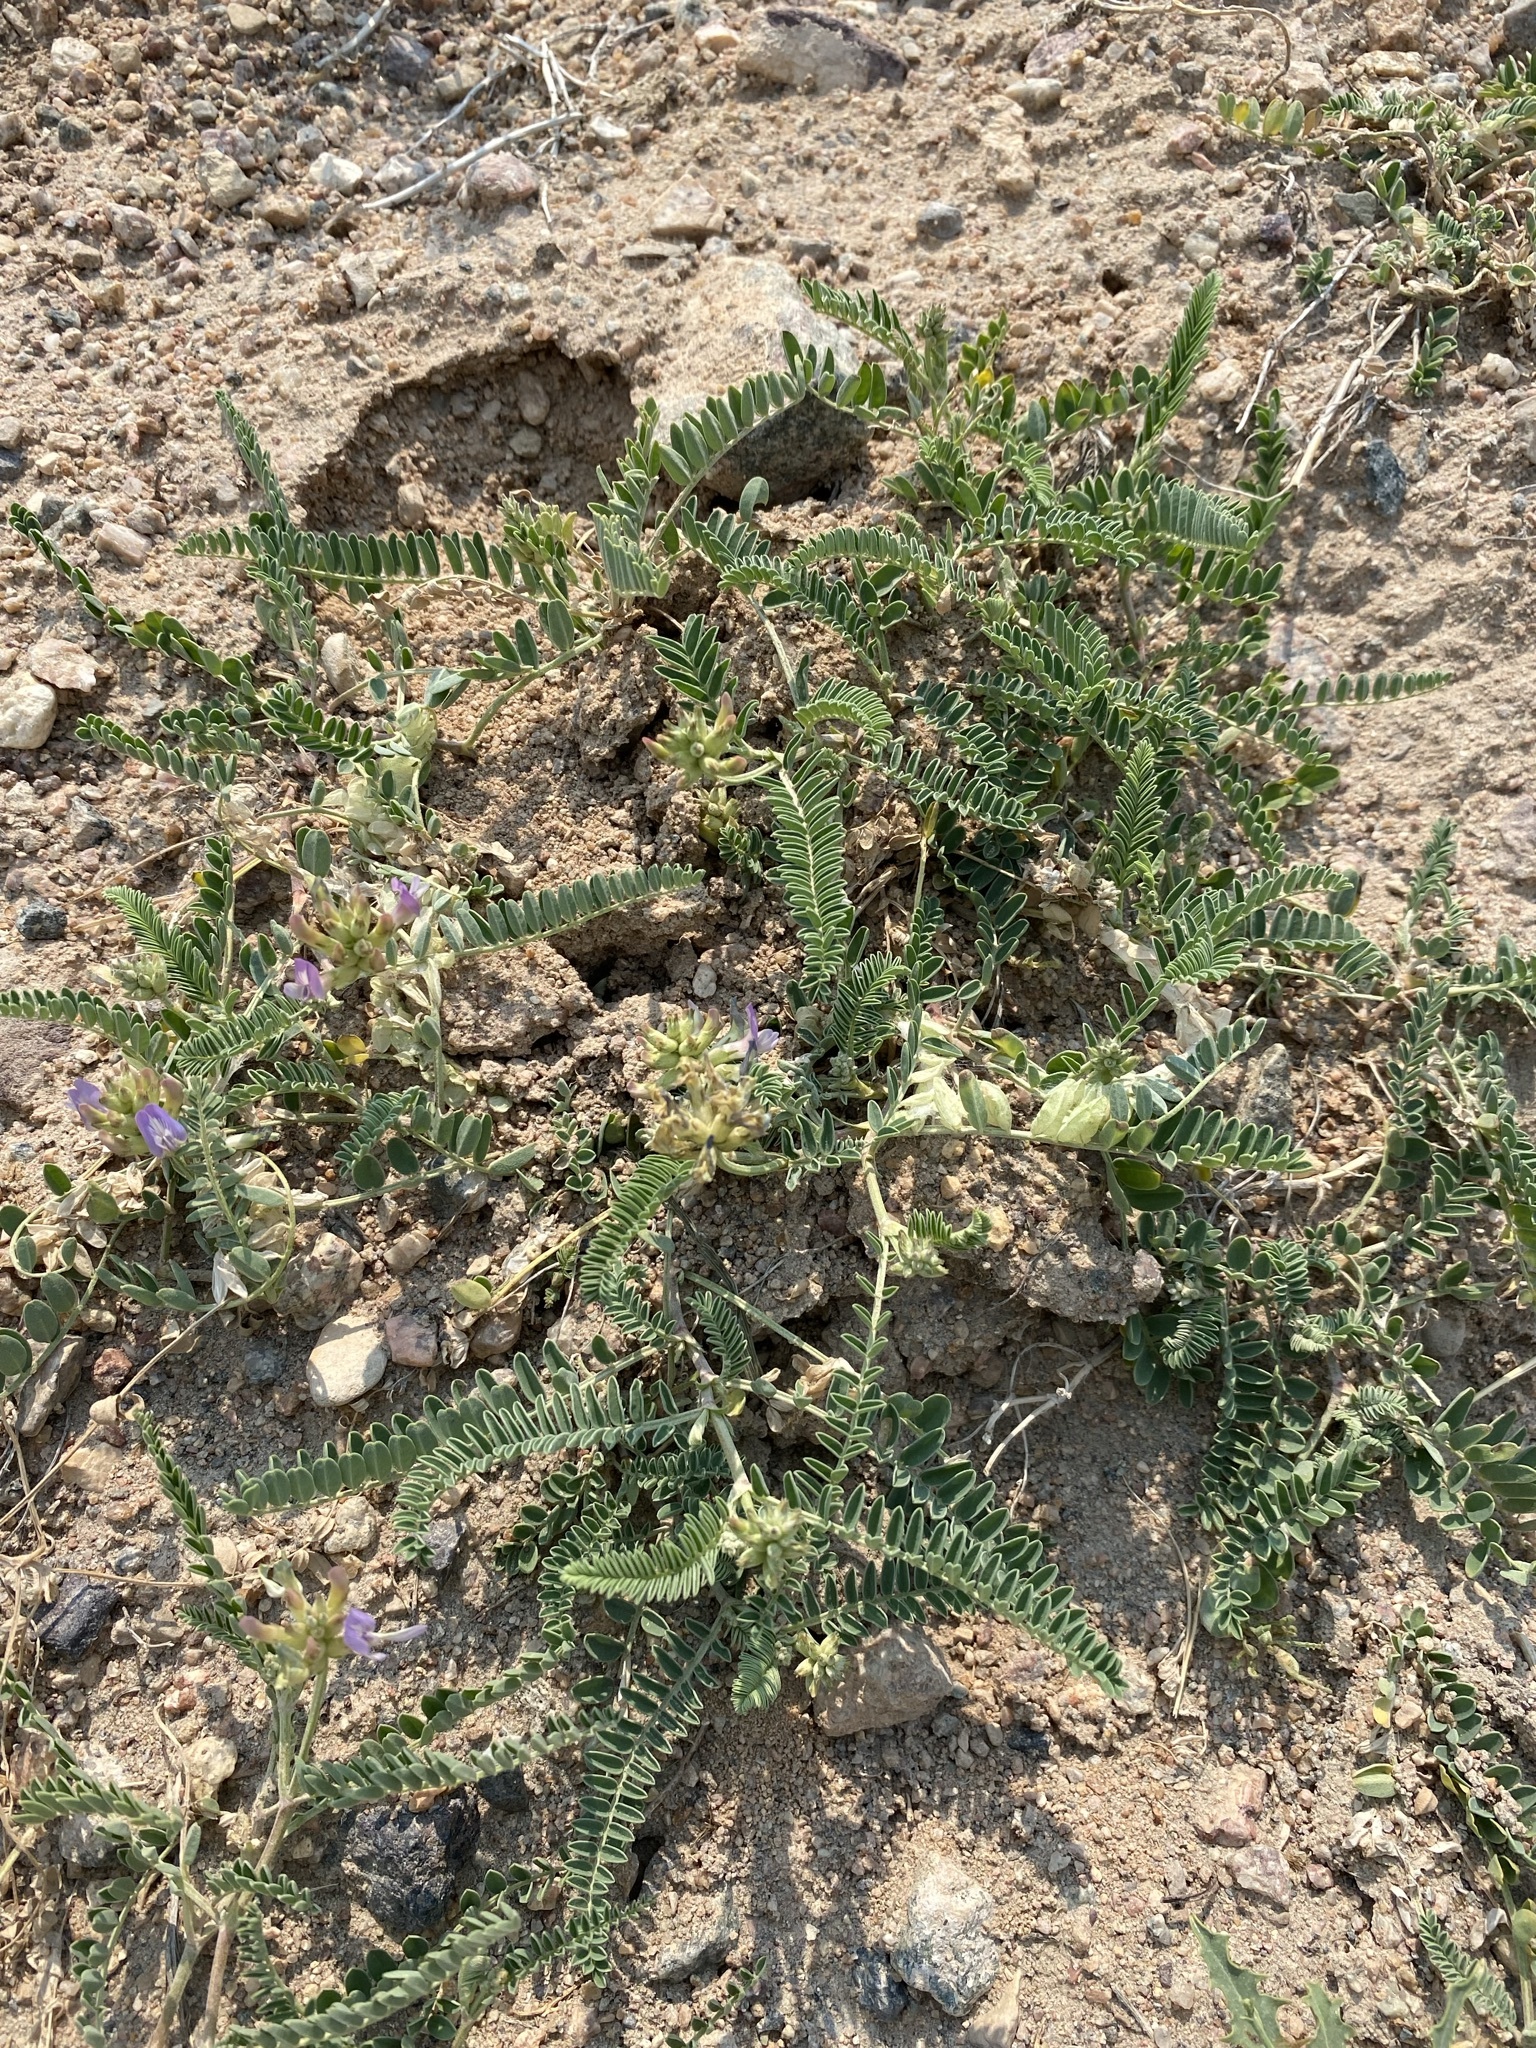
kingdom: Plantae
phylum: Tracheophyta
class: Magnoliopsida
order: Fabales
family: Fabaceae
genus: Astragalus
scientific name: Astragalus tibetanus
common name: Tibet milkvetch
